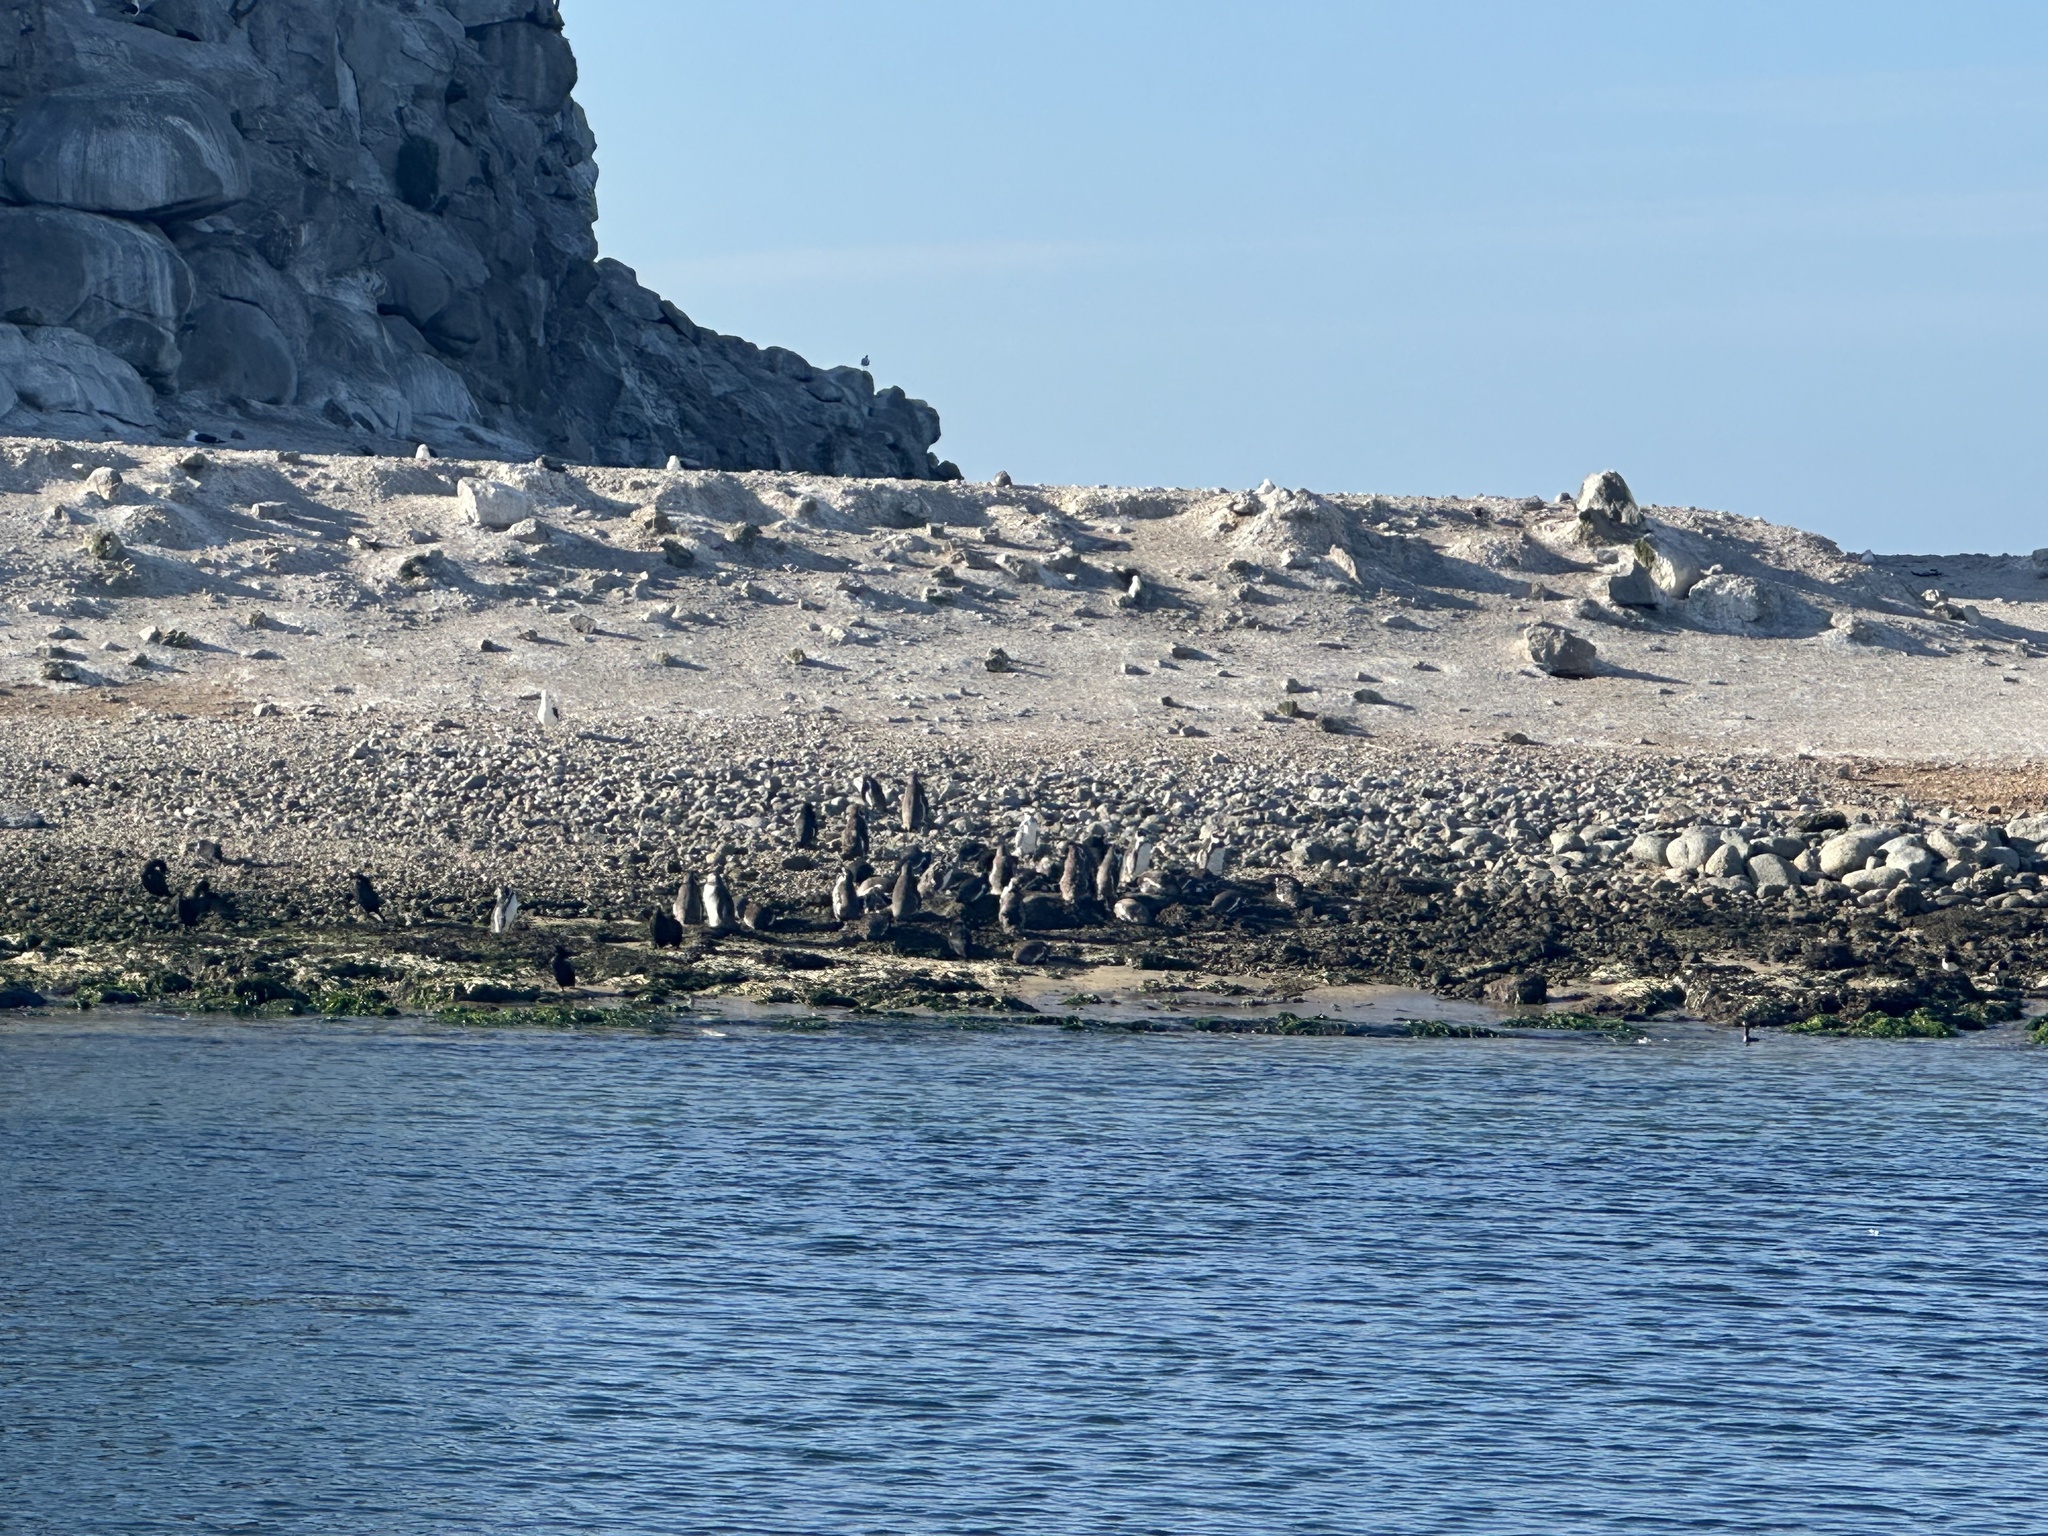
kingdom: Animalia
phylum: Chordata
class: Aves
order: Sphenisciformes
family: Spheniscidae
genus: Spheniscus
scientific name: Spheniscus humboldti
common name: Humboldt penguin
